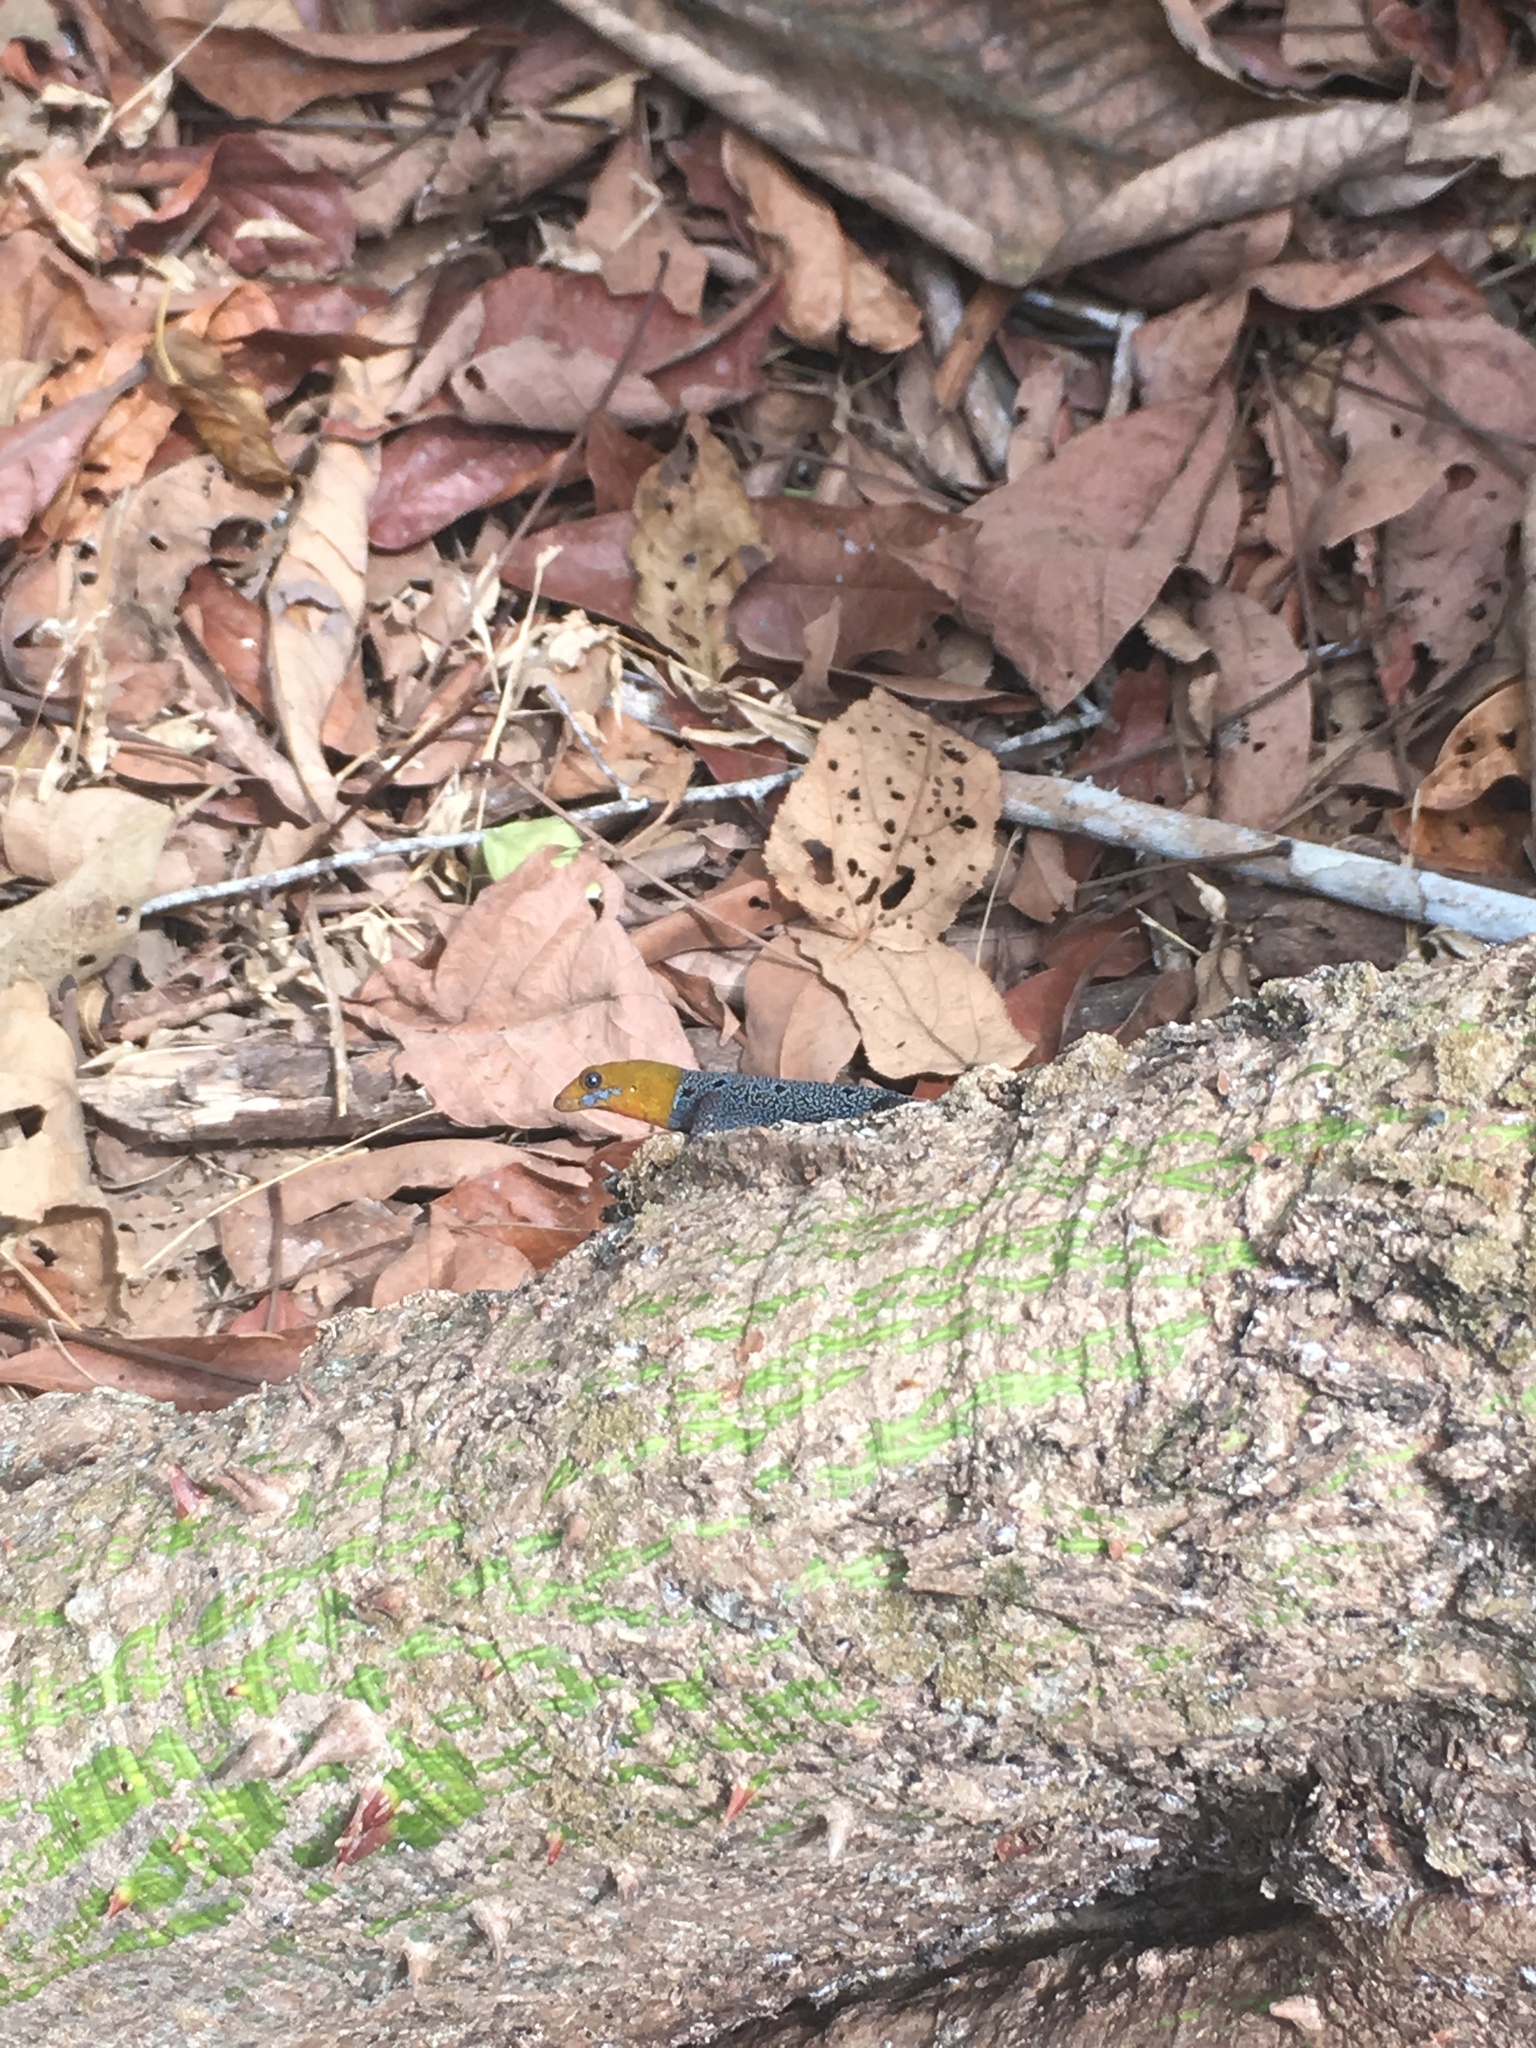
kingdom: Animalia
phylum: Chordata
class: Squamata
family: Sphaerodactylidae
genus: Gonatodes
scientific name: Gonatodes albogularis
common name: Yellow-headed gecko
